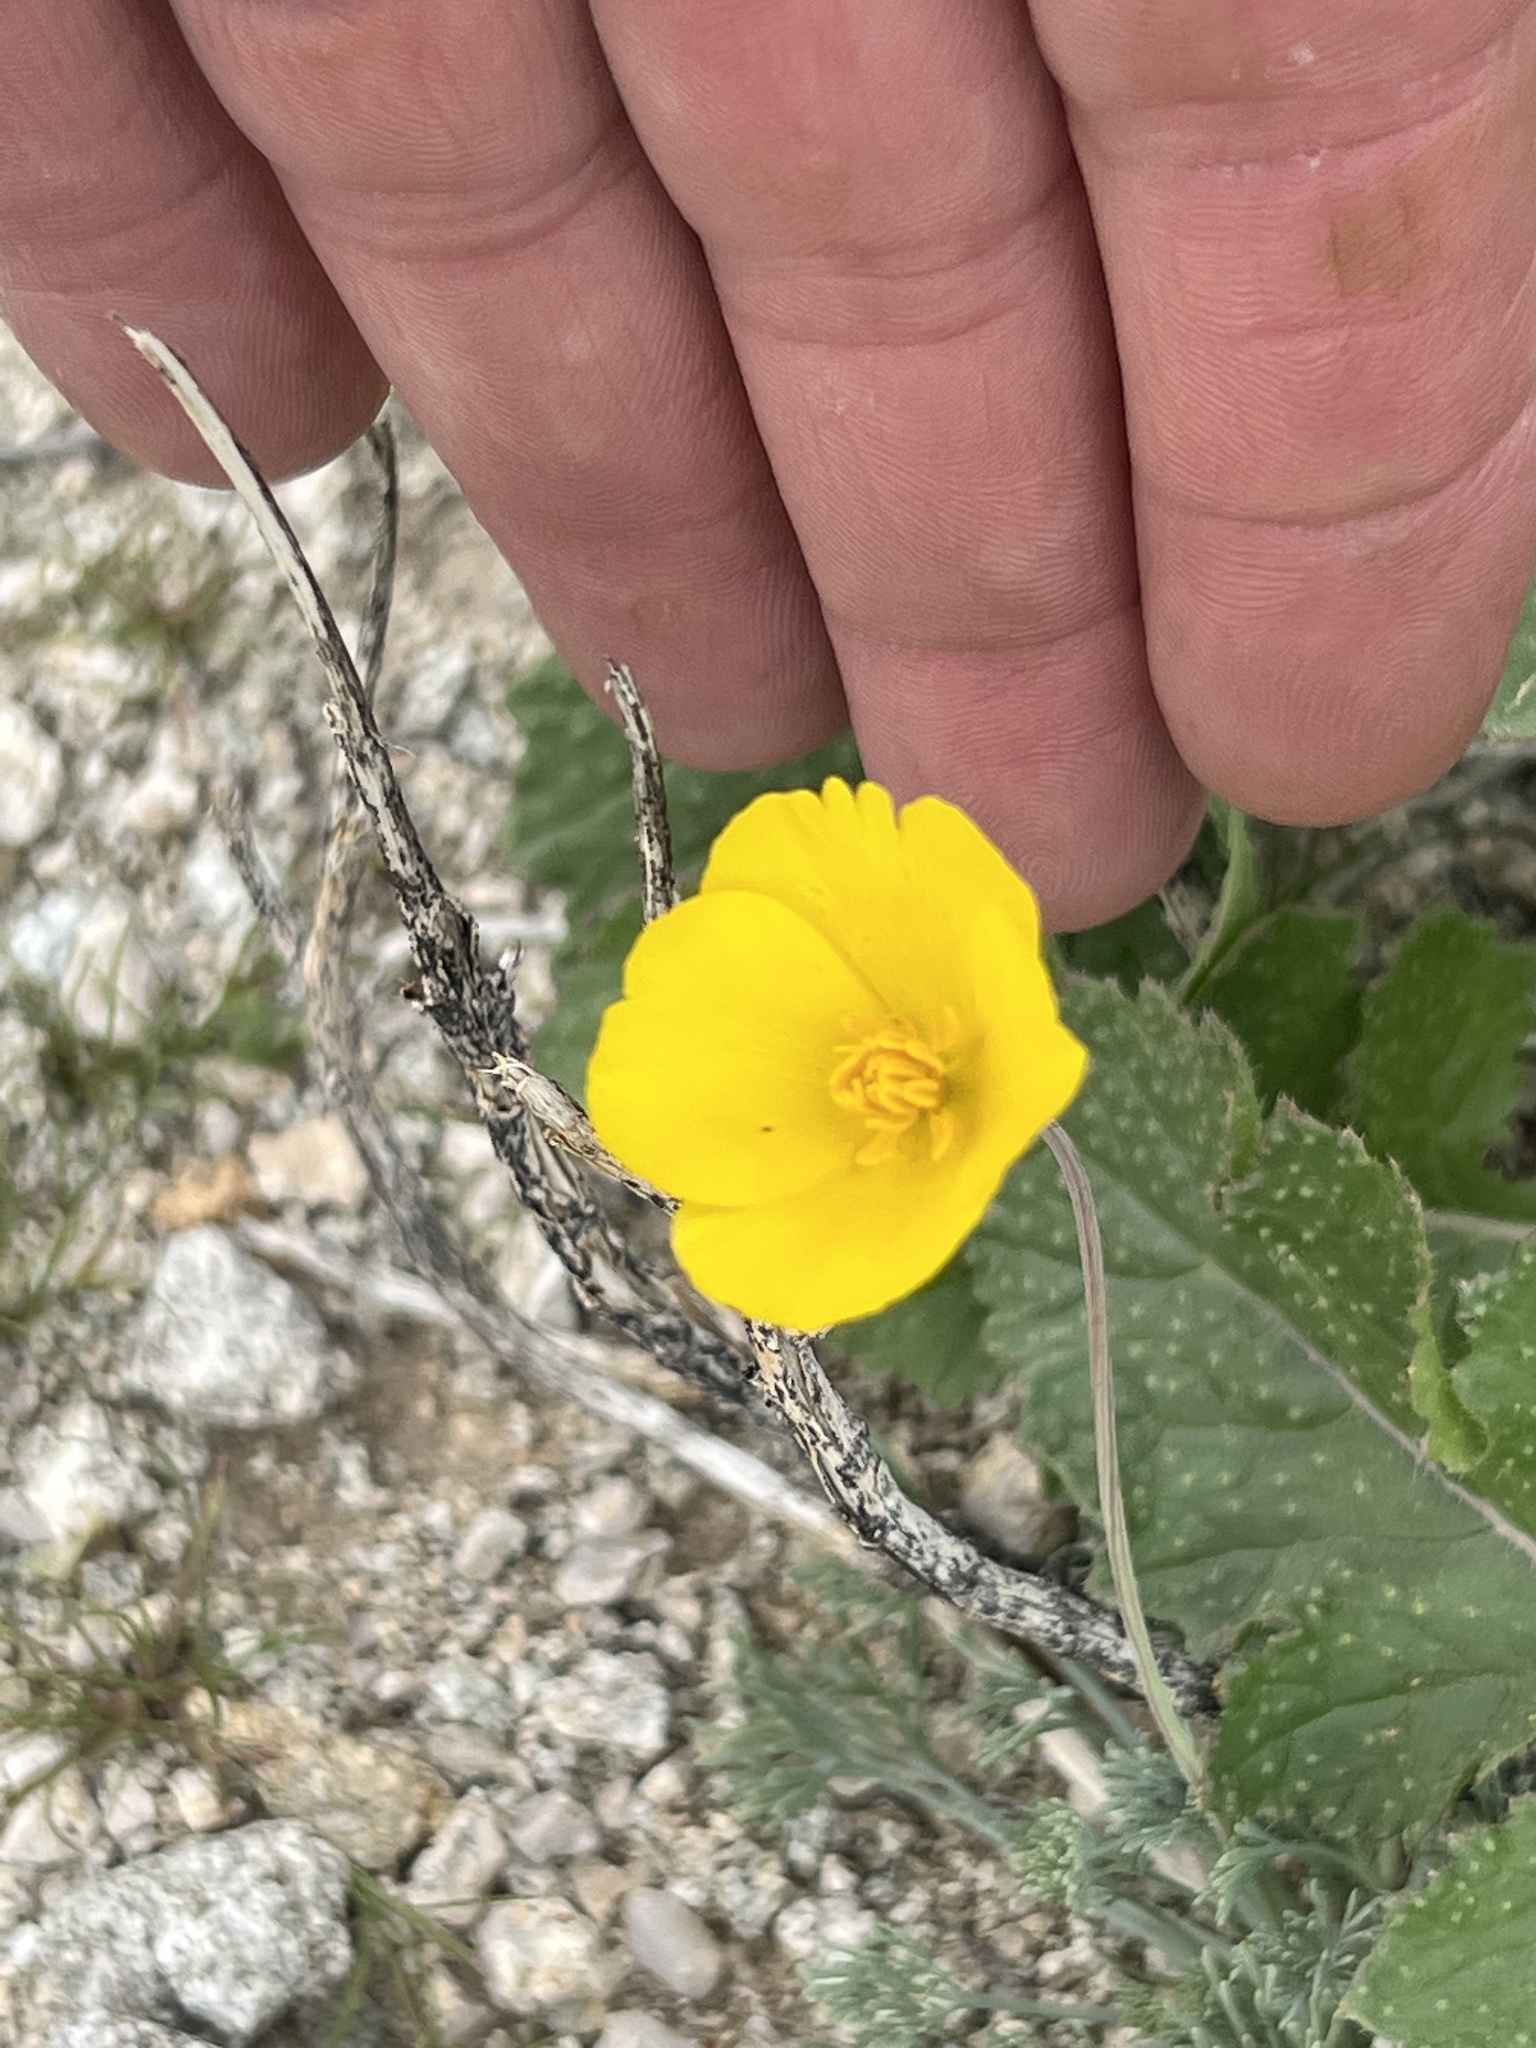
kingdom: Plantae
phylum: Tracheophyta
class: Magnoliopsida
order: Ranunculales
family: Papaveraceae
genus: Eschscholzia
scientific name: Eschscholzia glyptosperma
